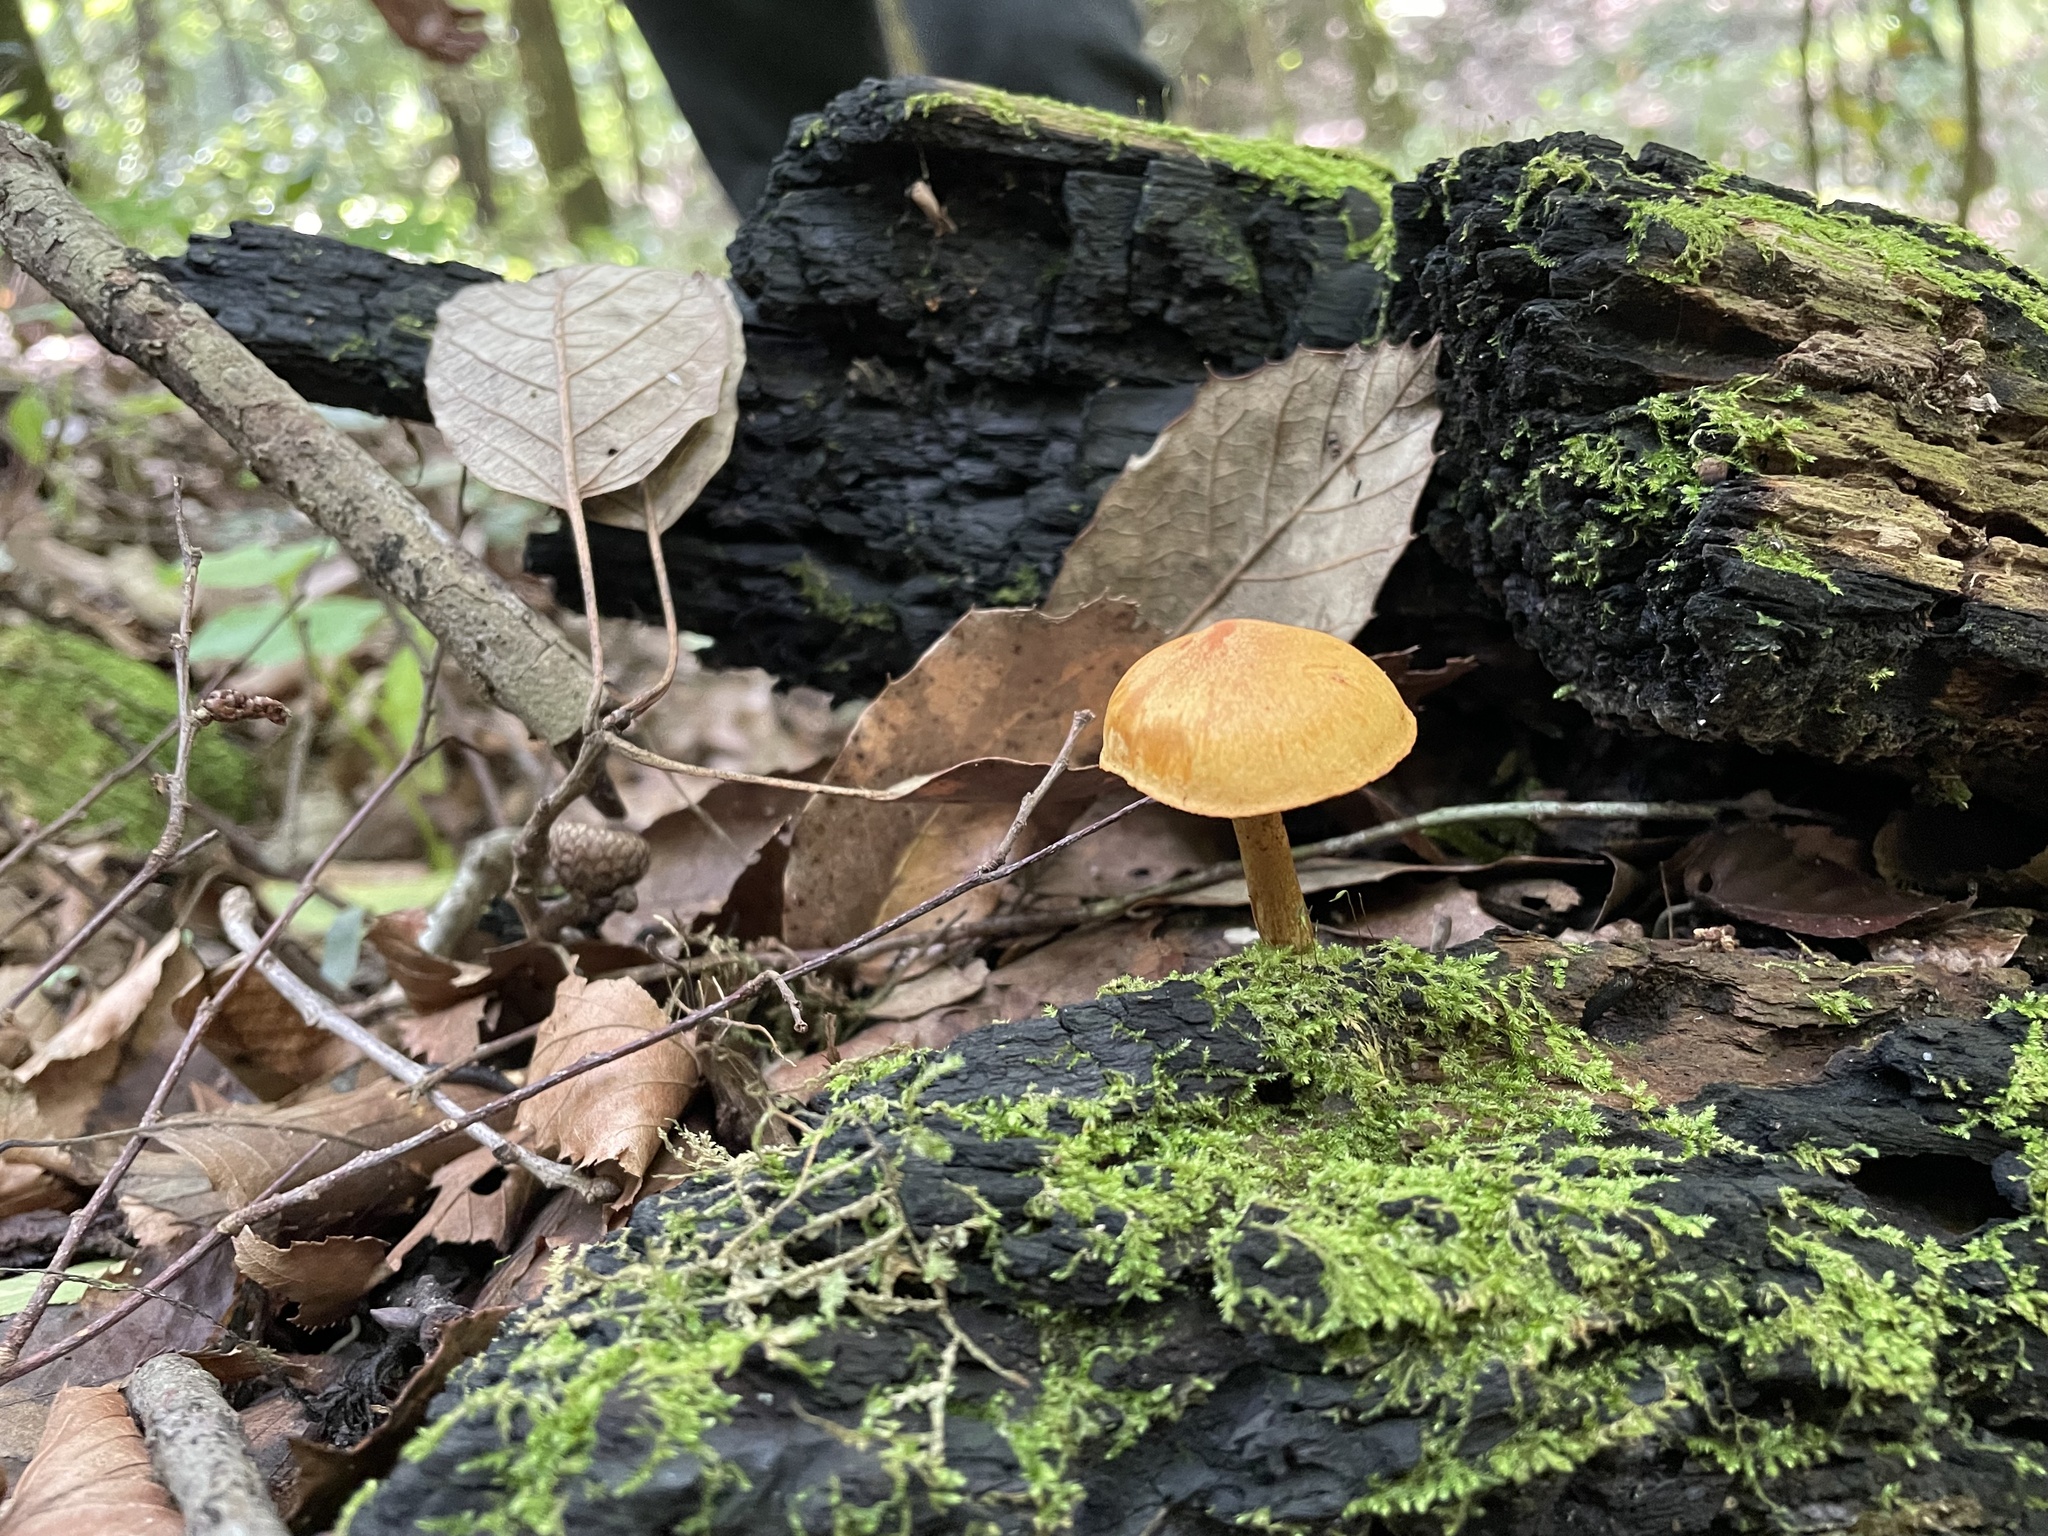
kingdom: Fungi
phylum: Basidiomycota
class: Agaricomycetes
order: Agaricales
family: Hymenogastraceae
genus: Gymnopilus
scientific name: Gymnopilus sapineus
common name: Scaly rustgill
